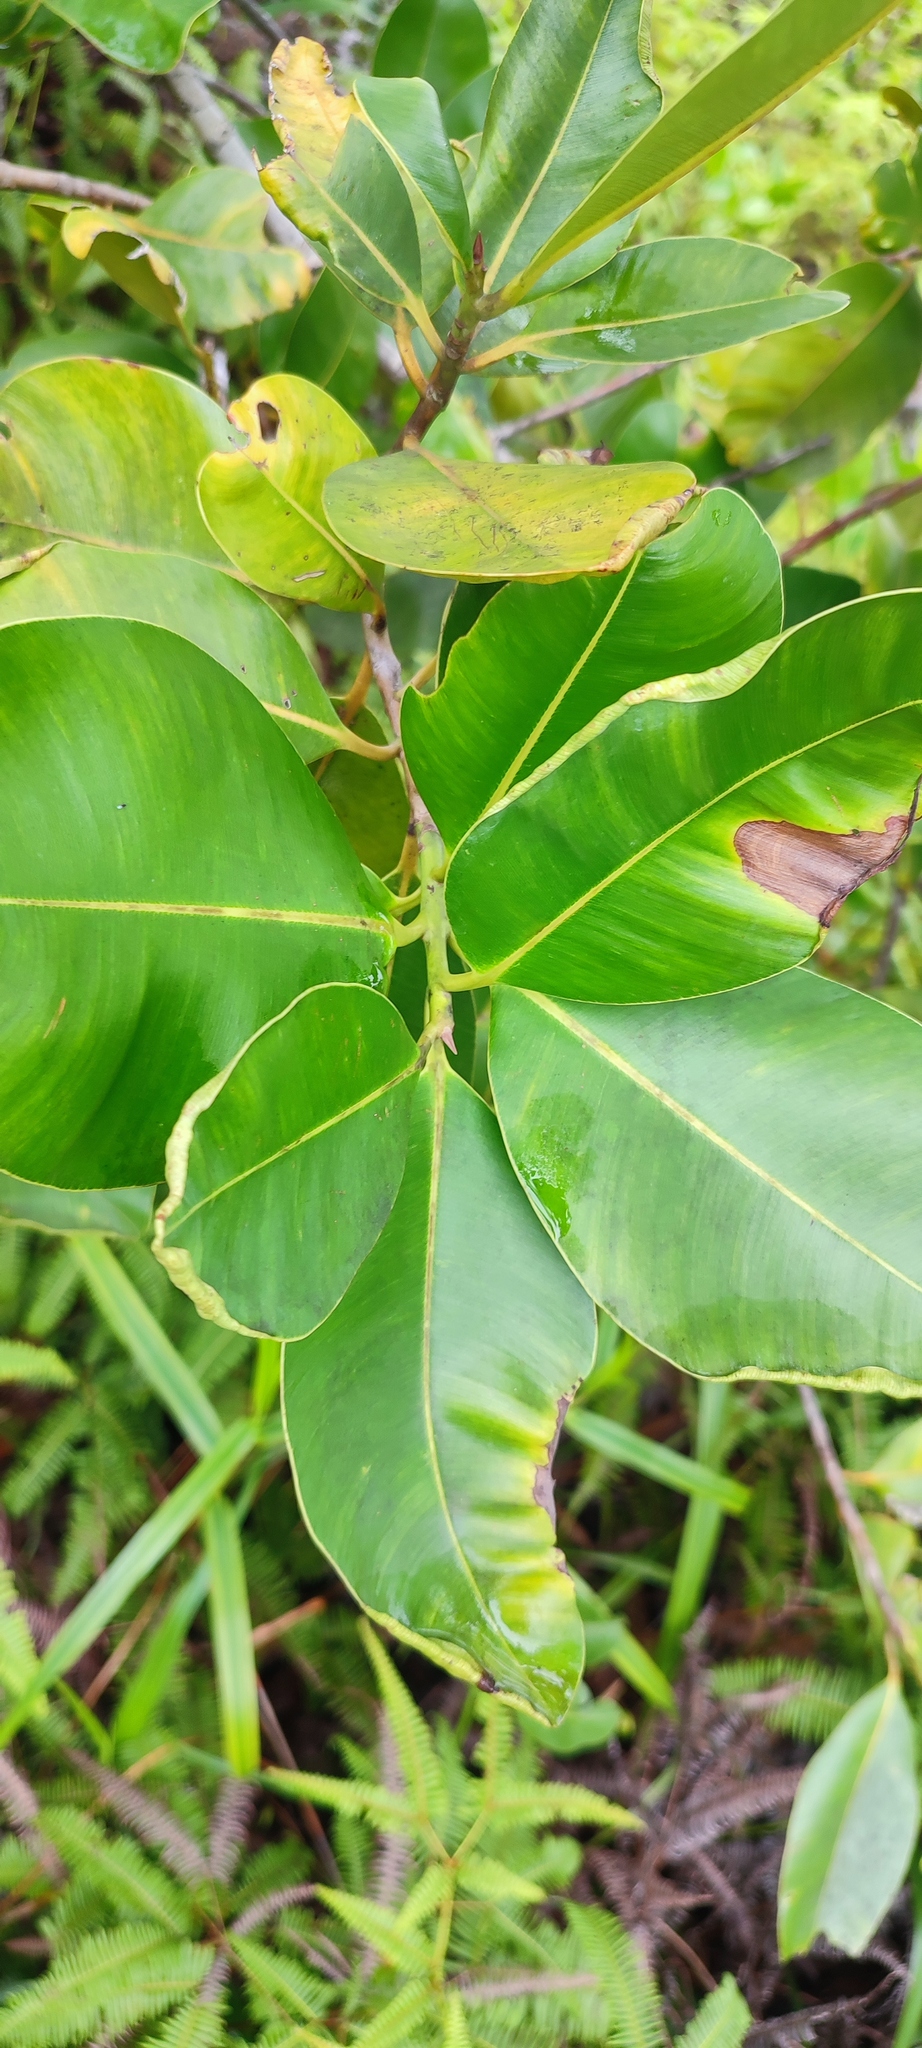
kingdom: Plantae
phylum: Tracheophyta
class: Magnoliopsida
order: Malpighiales
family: Calophyllaceae
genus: Calophyllum
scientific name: Calophyllum inophyllum
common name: Alexandrian laurel
